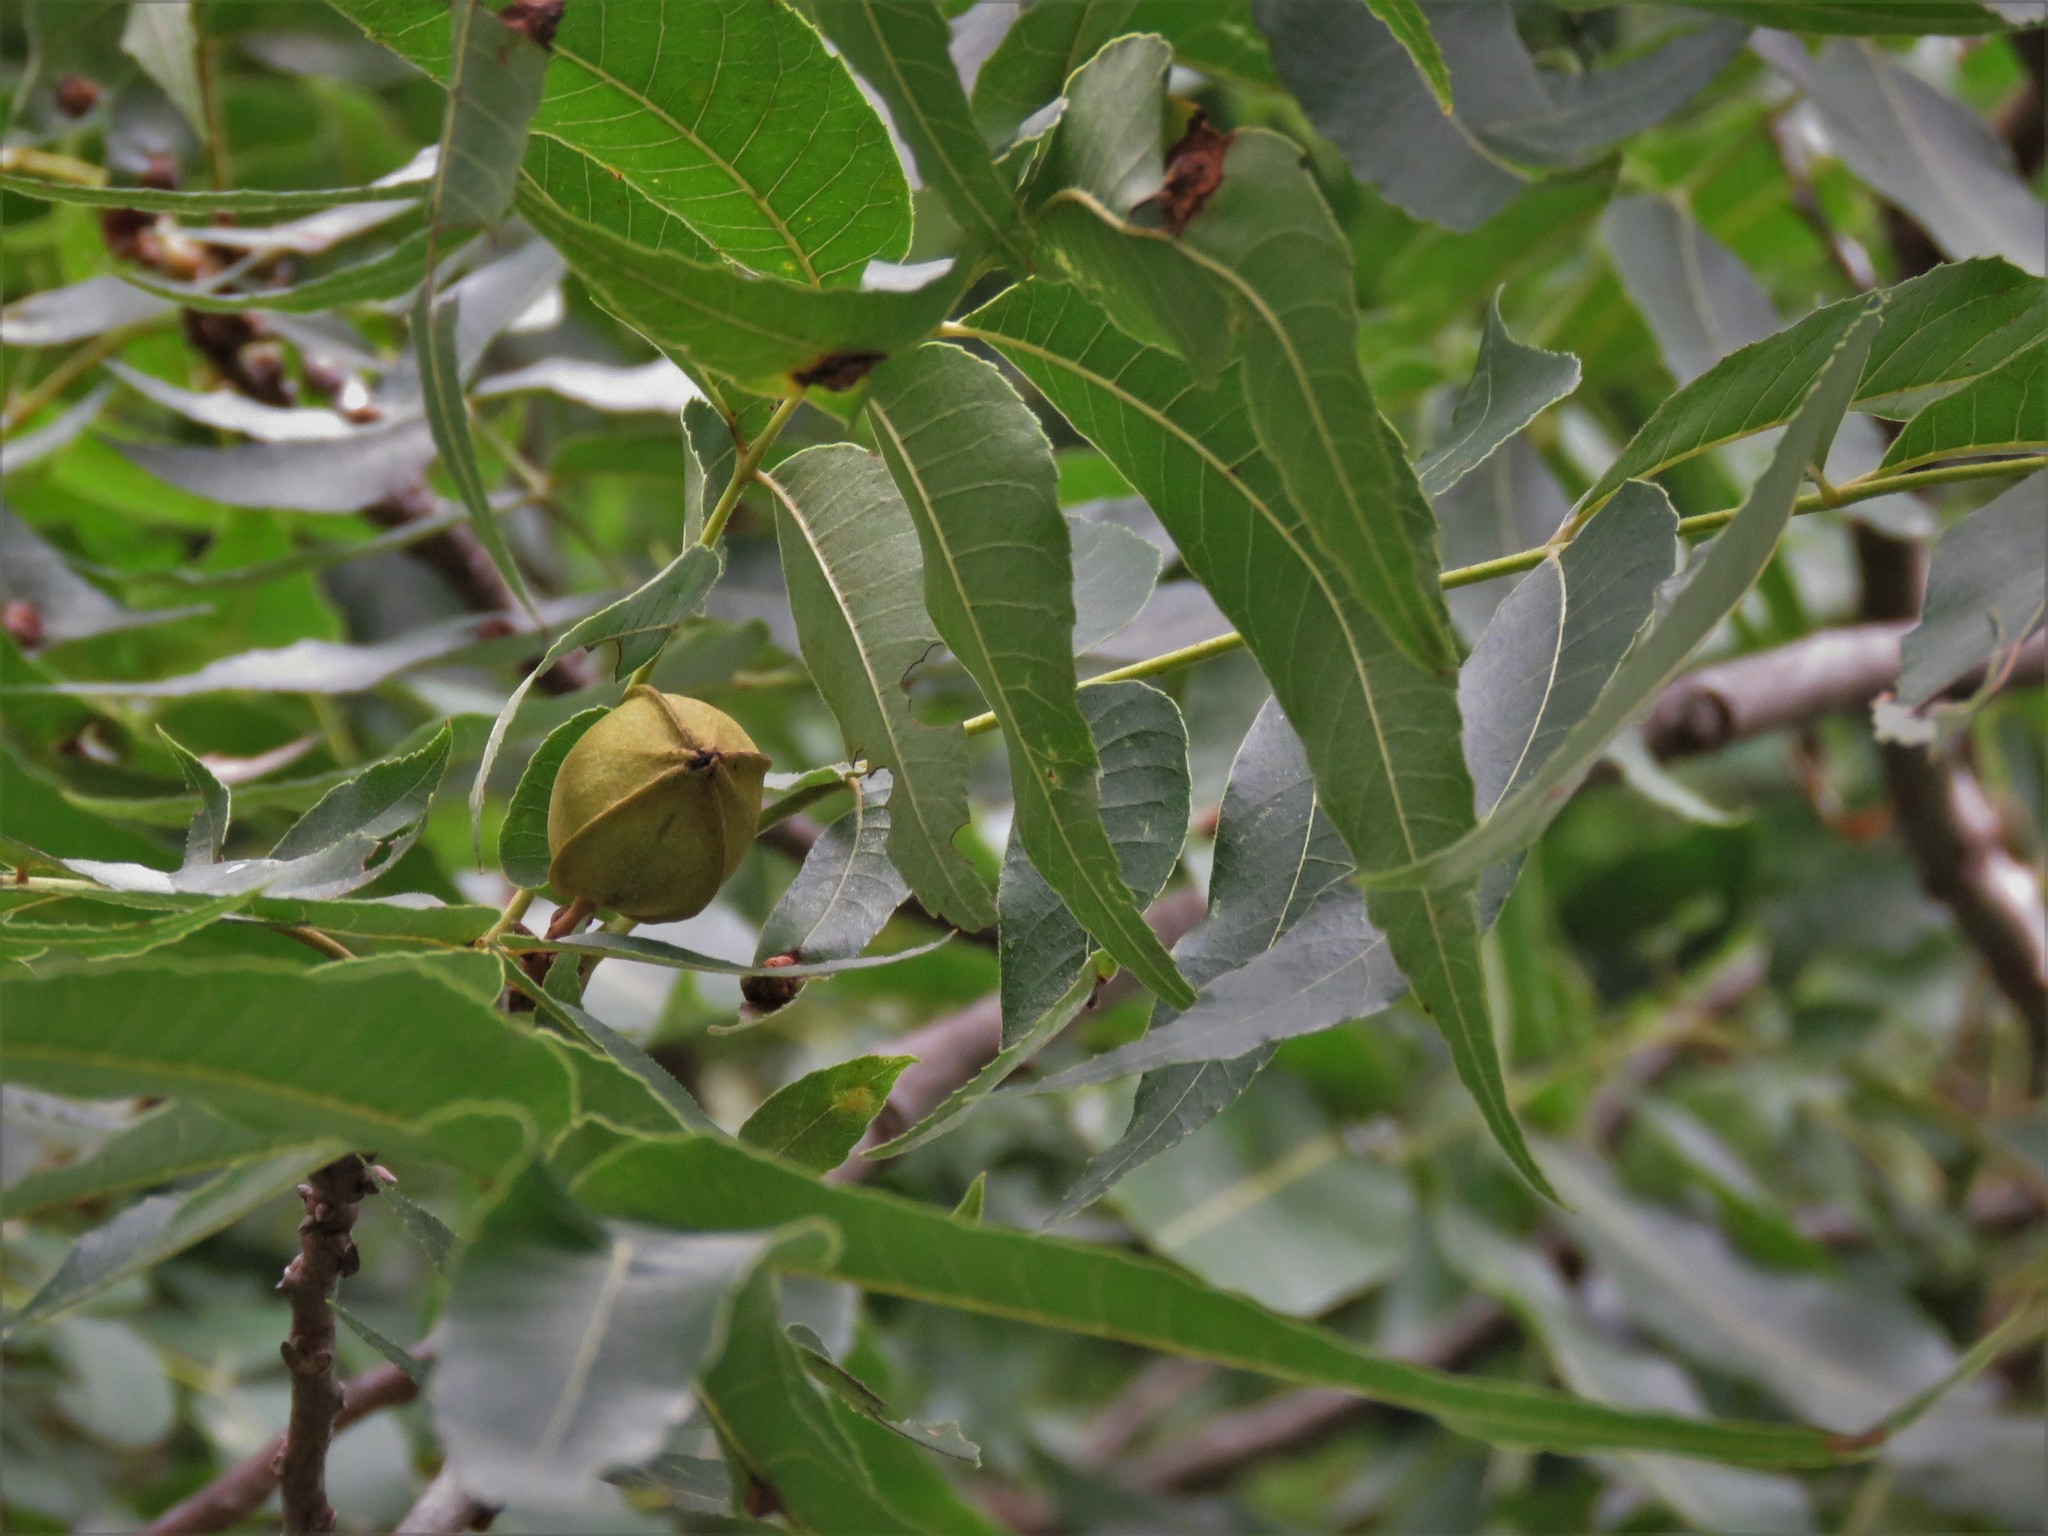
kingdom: Plantae
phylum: Tracheophyta
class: Magnoliopsida
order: Fagales
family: Juglandaceae
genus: Carya
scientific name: Carya illinoinensis
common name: Pecan
